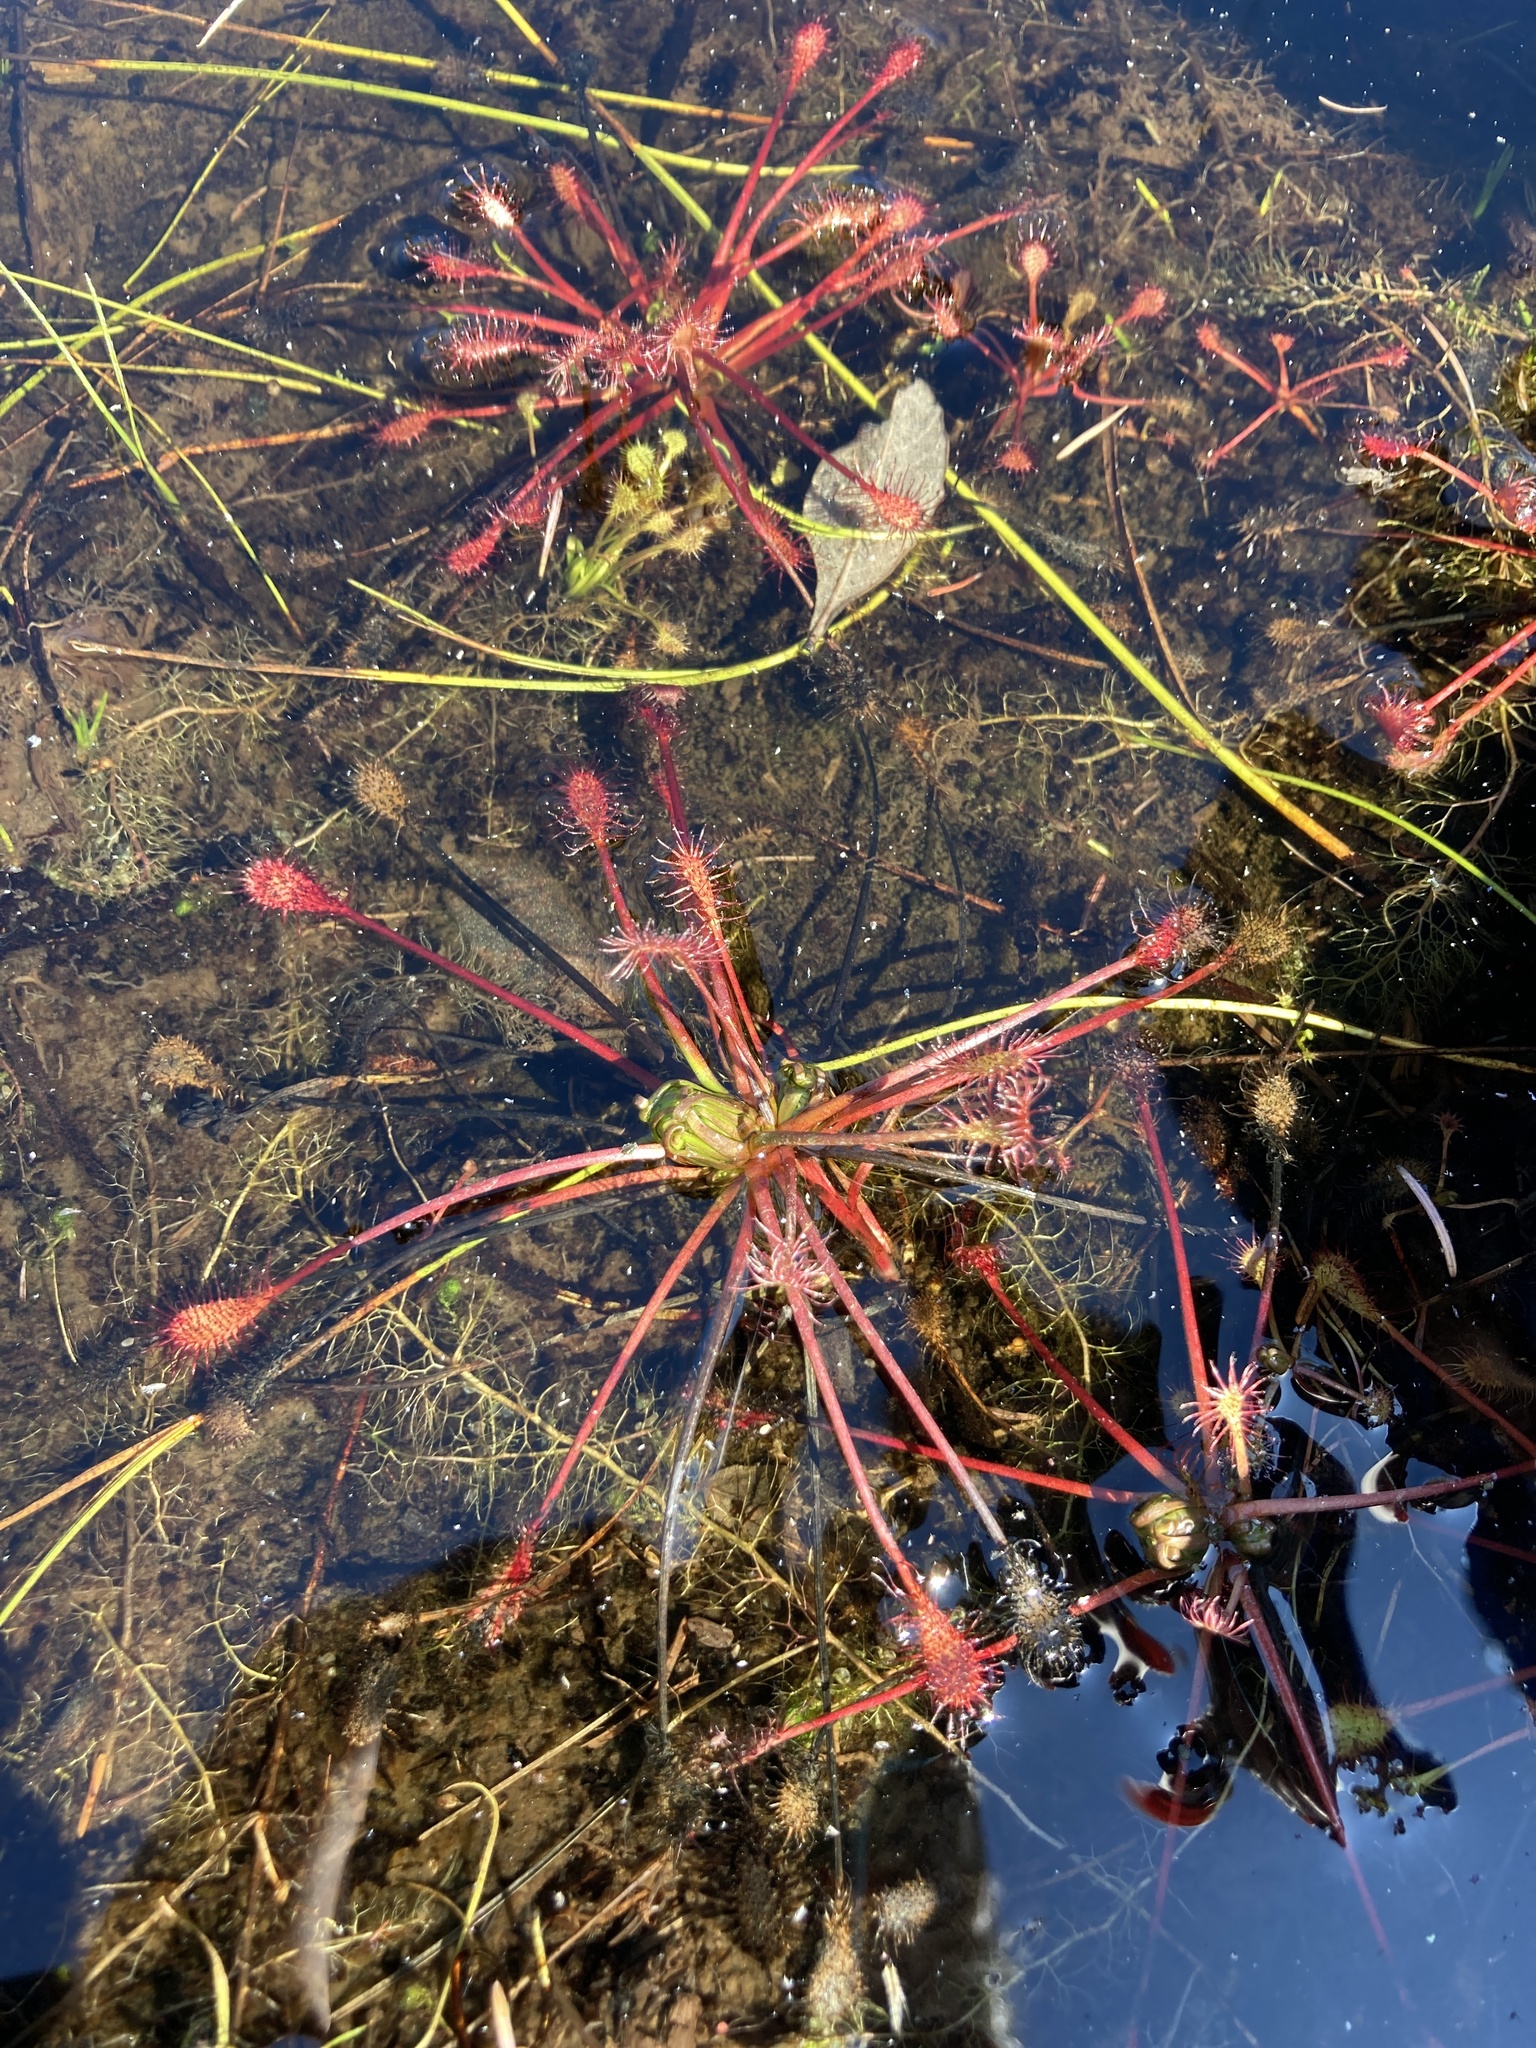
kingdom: Plantae
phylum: Tracheophyta
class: Magnoliopsida
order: Caryophyllales
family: Droseraceae
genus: Drosera
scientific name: Drosera intermedia
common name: Oblong-leaved sundew
